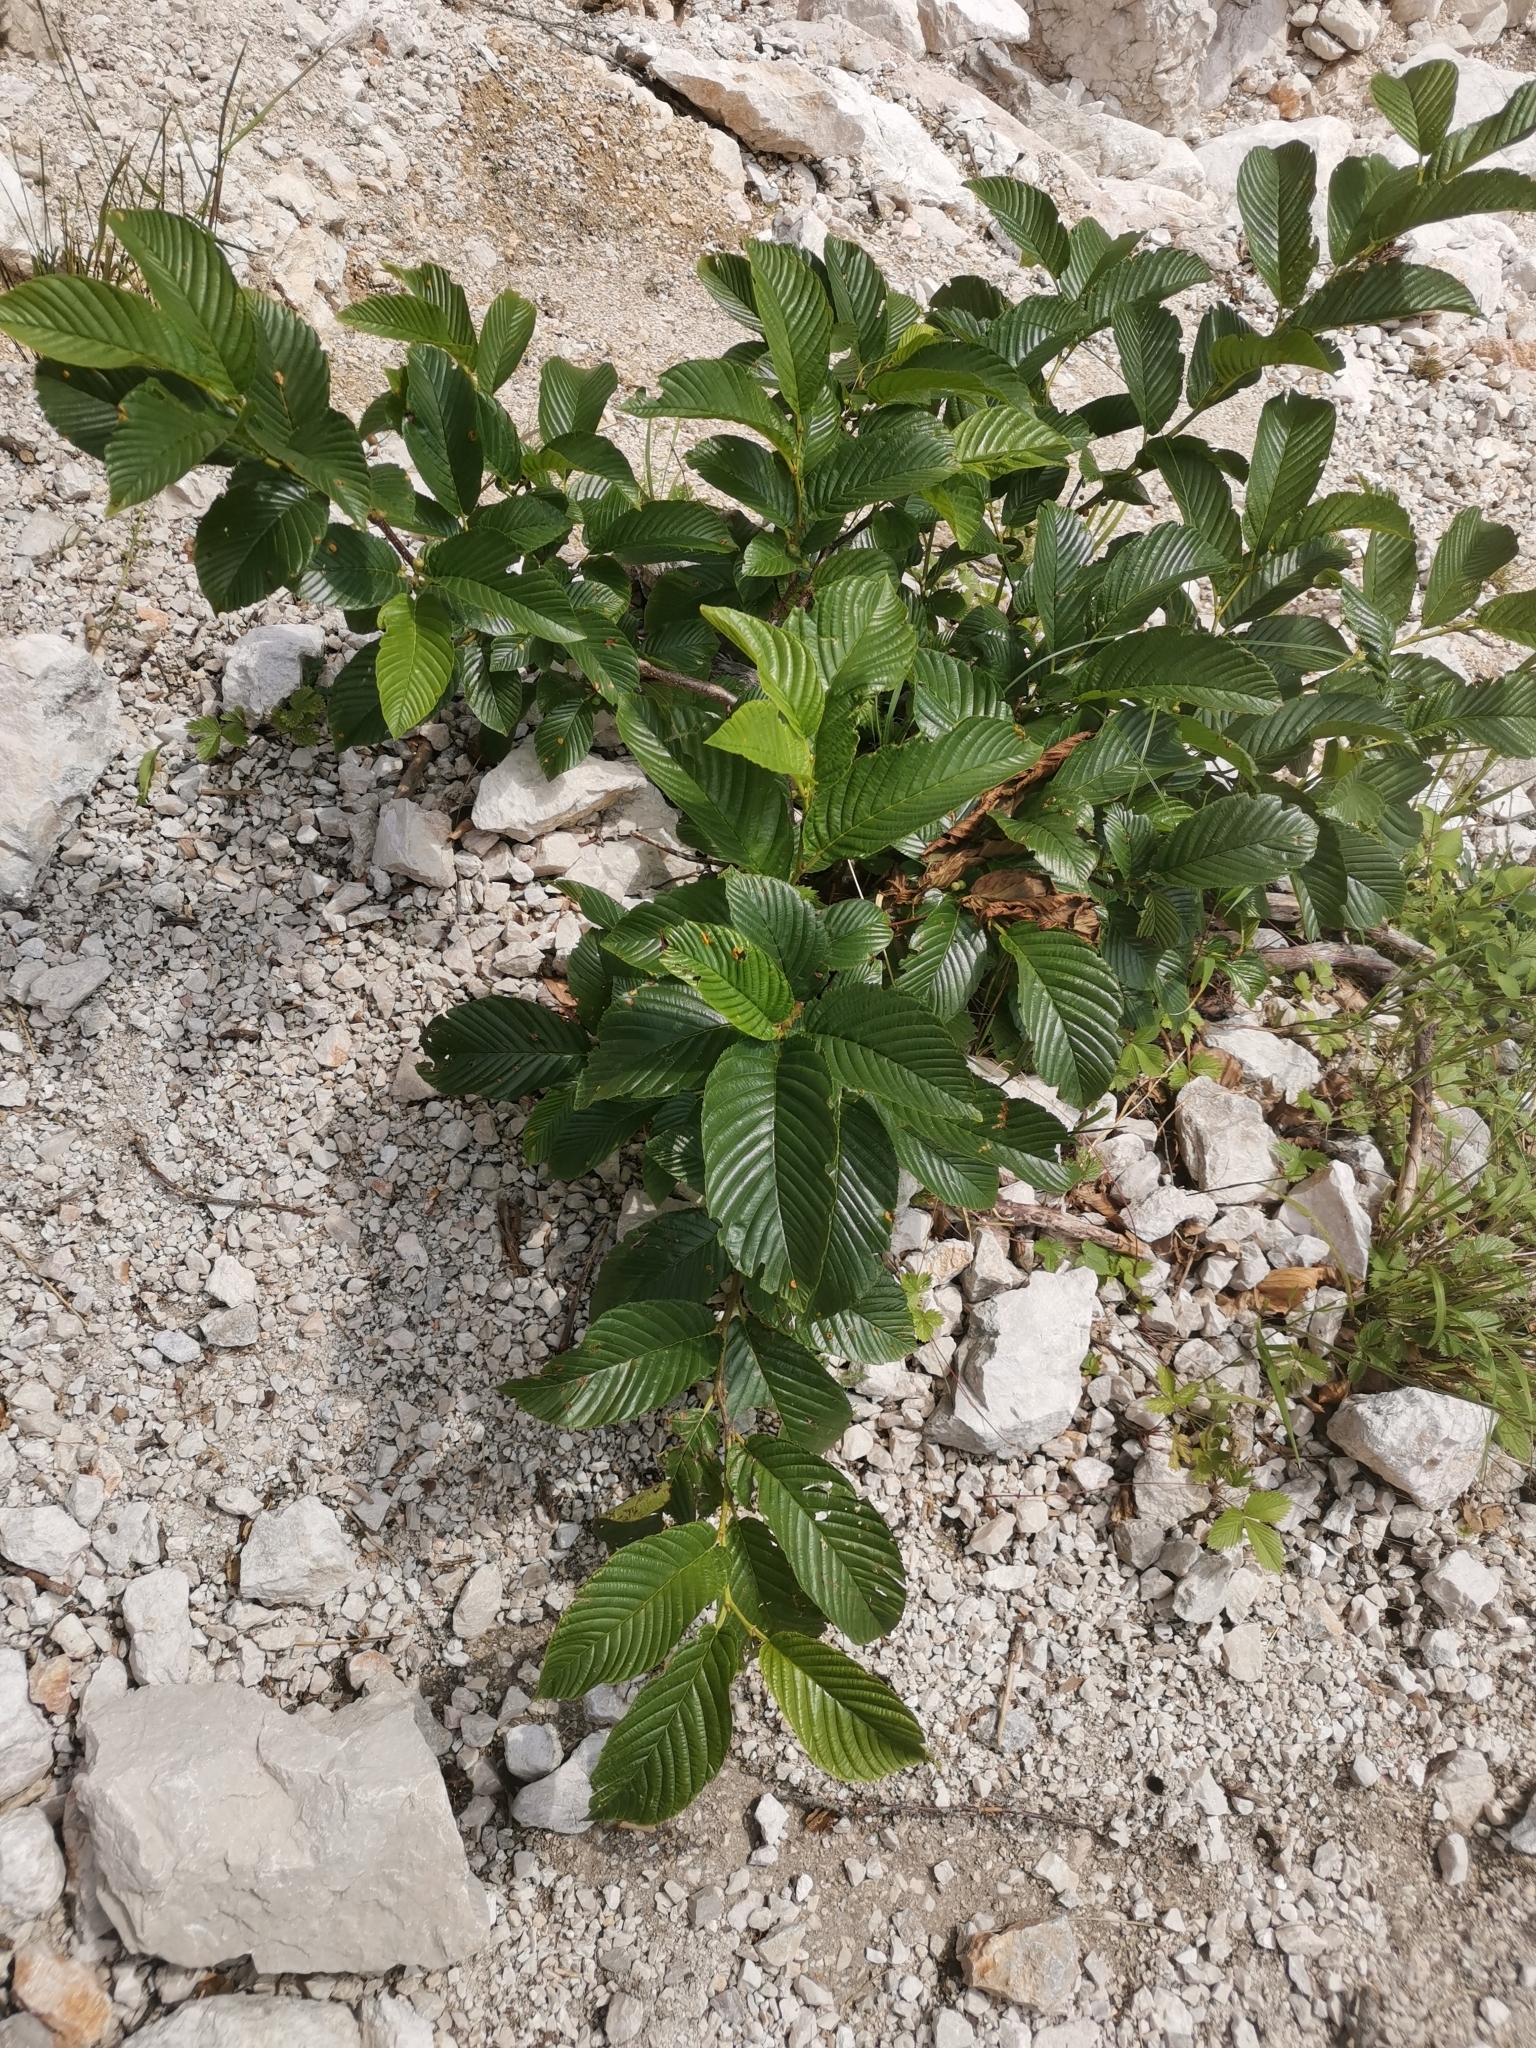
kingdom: Plantae
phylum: Tracheophyta
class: Magnoliopsida
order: Rosales
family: Rhamnaceae
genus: Atadinus
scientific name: Atadinus fallax
